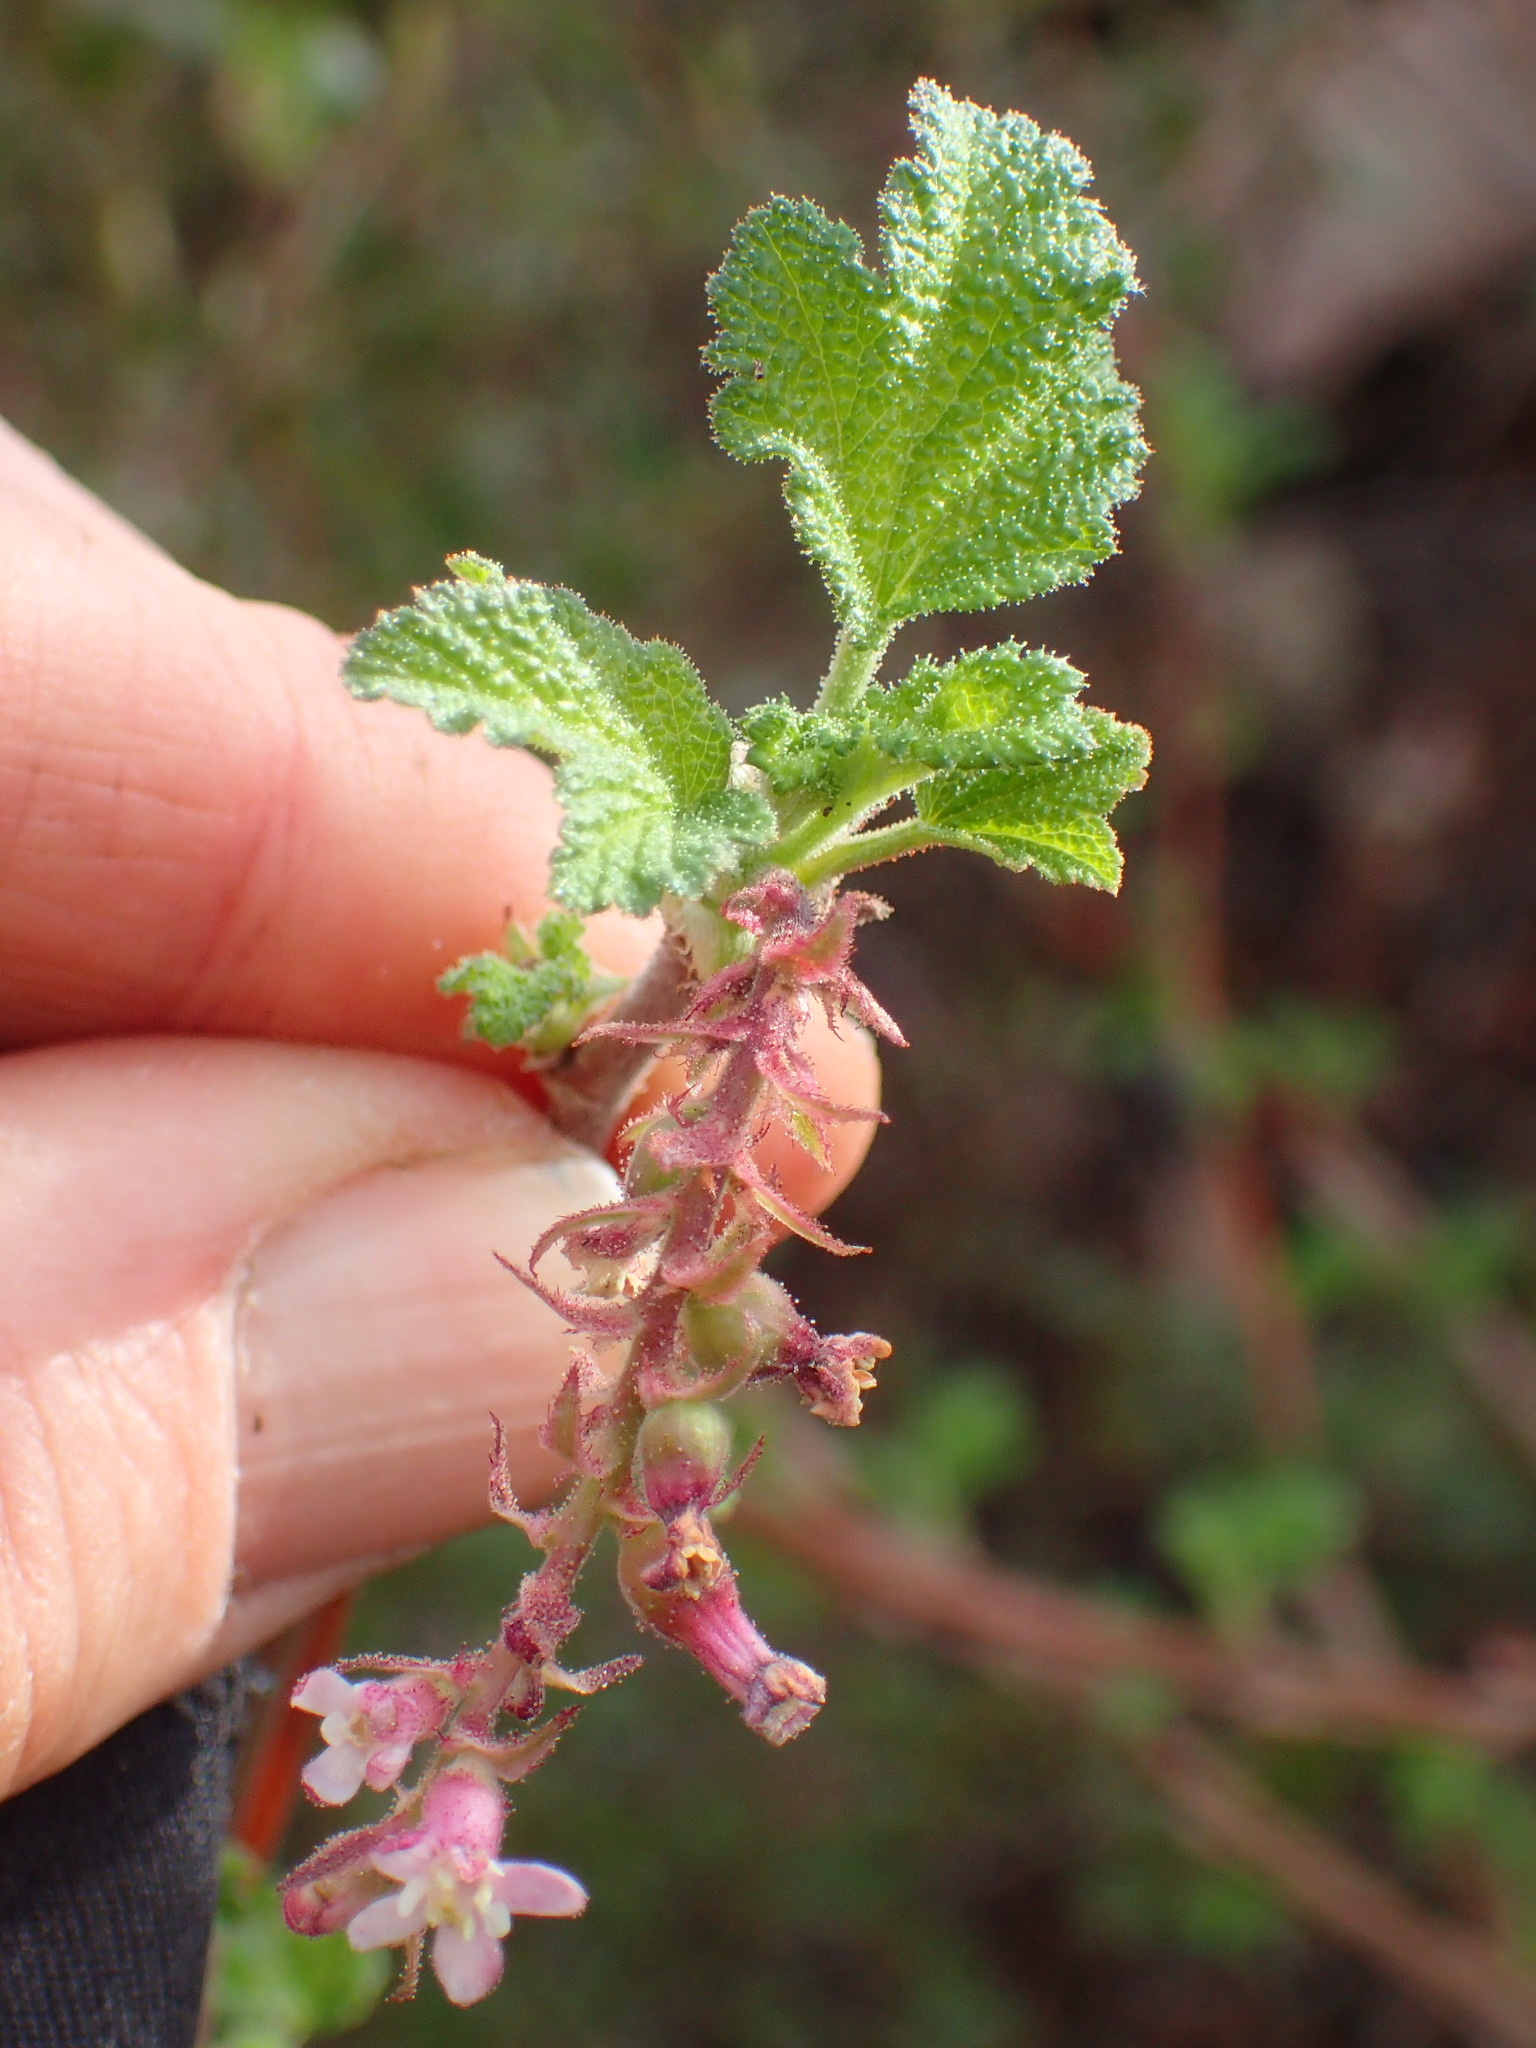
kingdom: Plantae
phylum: Tracheophyta
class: Magnoliopsida
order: Saxifragales
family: Grossulariaceae
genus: Ribes
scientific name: Ribes malvaceum
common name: Chaparral currant
